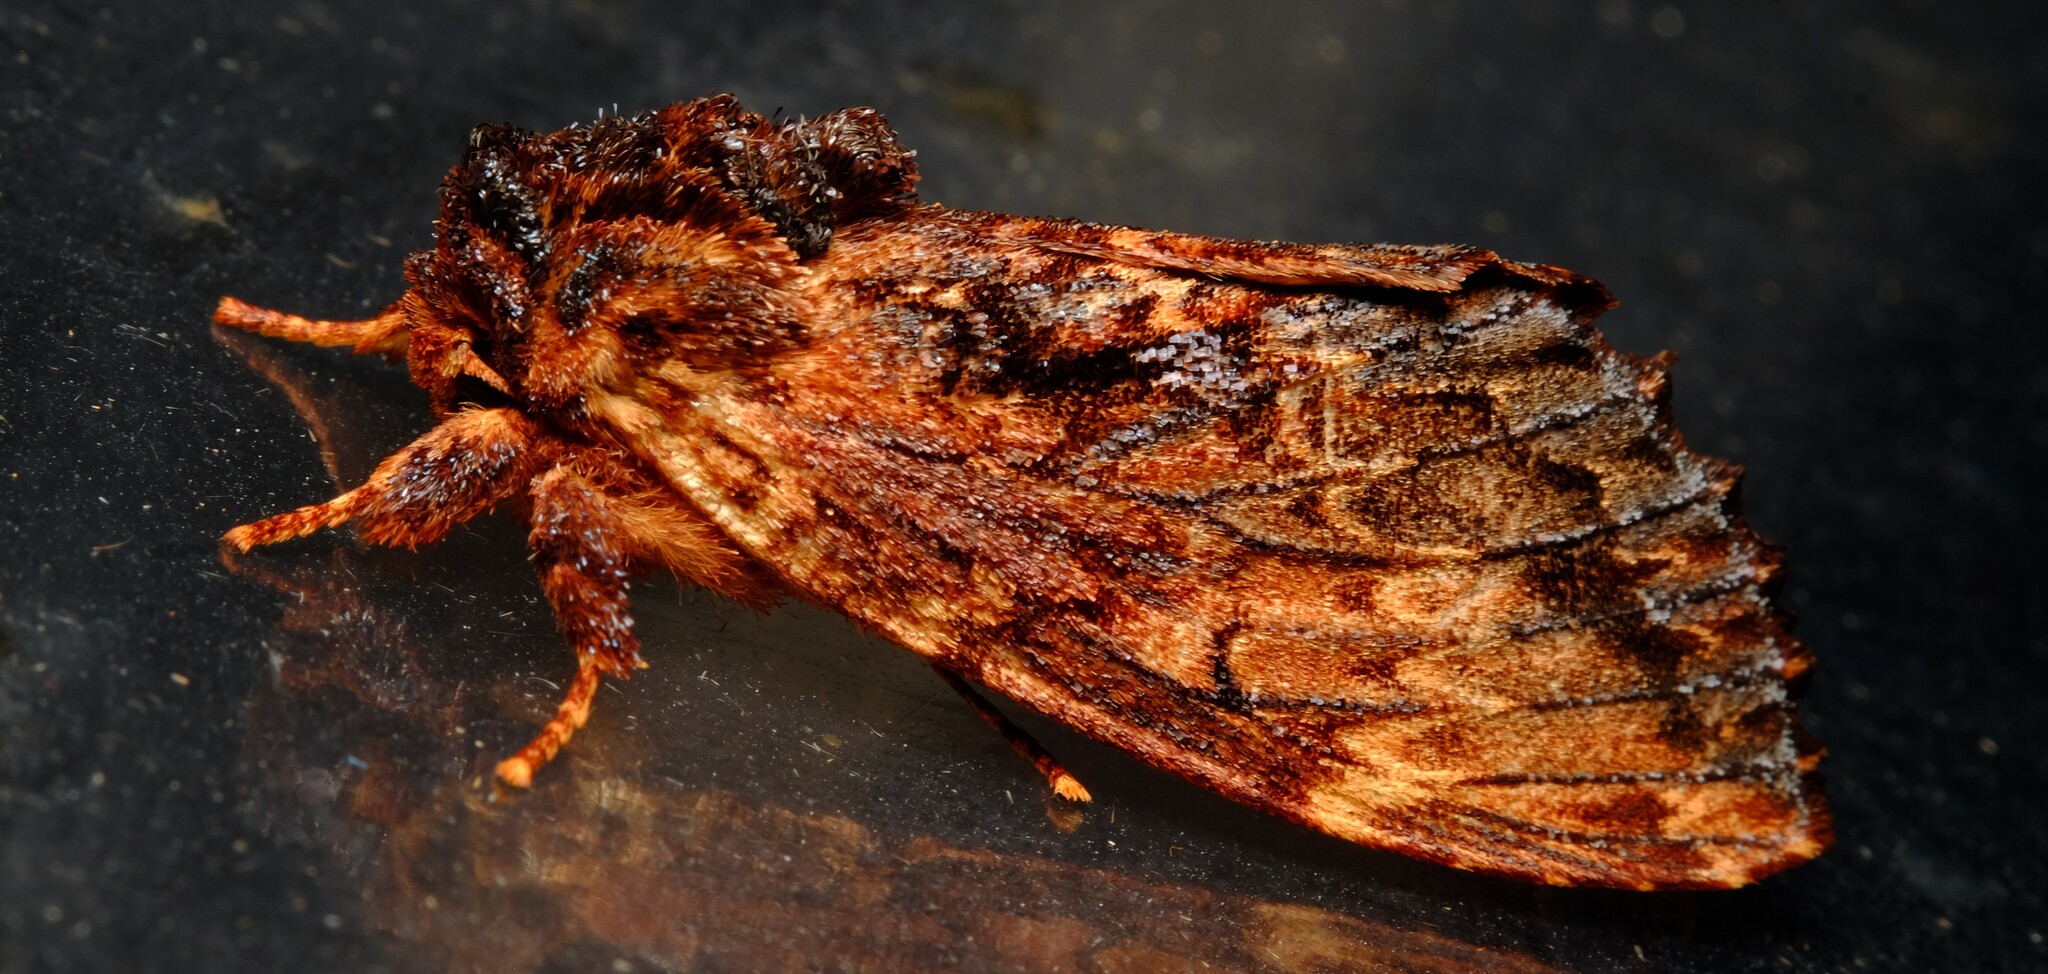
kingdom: Animalia
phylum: Arthropoda
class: Insecta
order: Lepidoptera
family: Notodontidae
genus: Sorama
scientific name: Sorama bicolor
